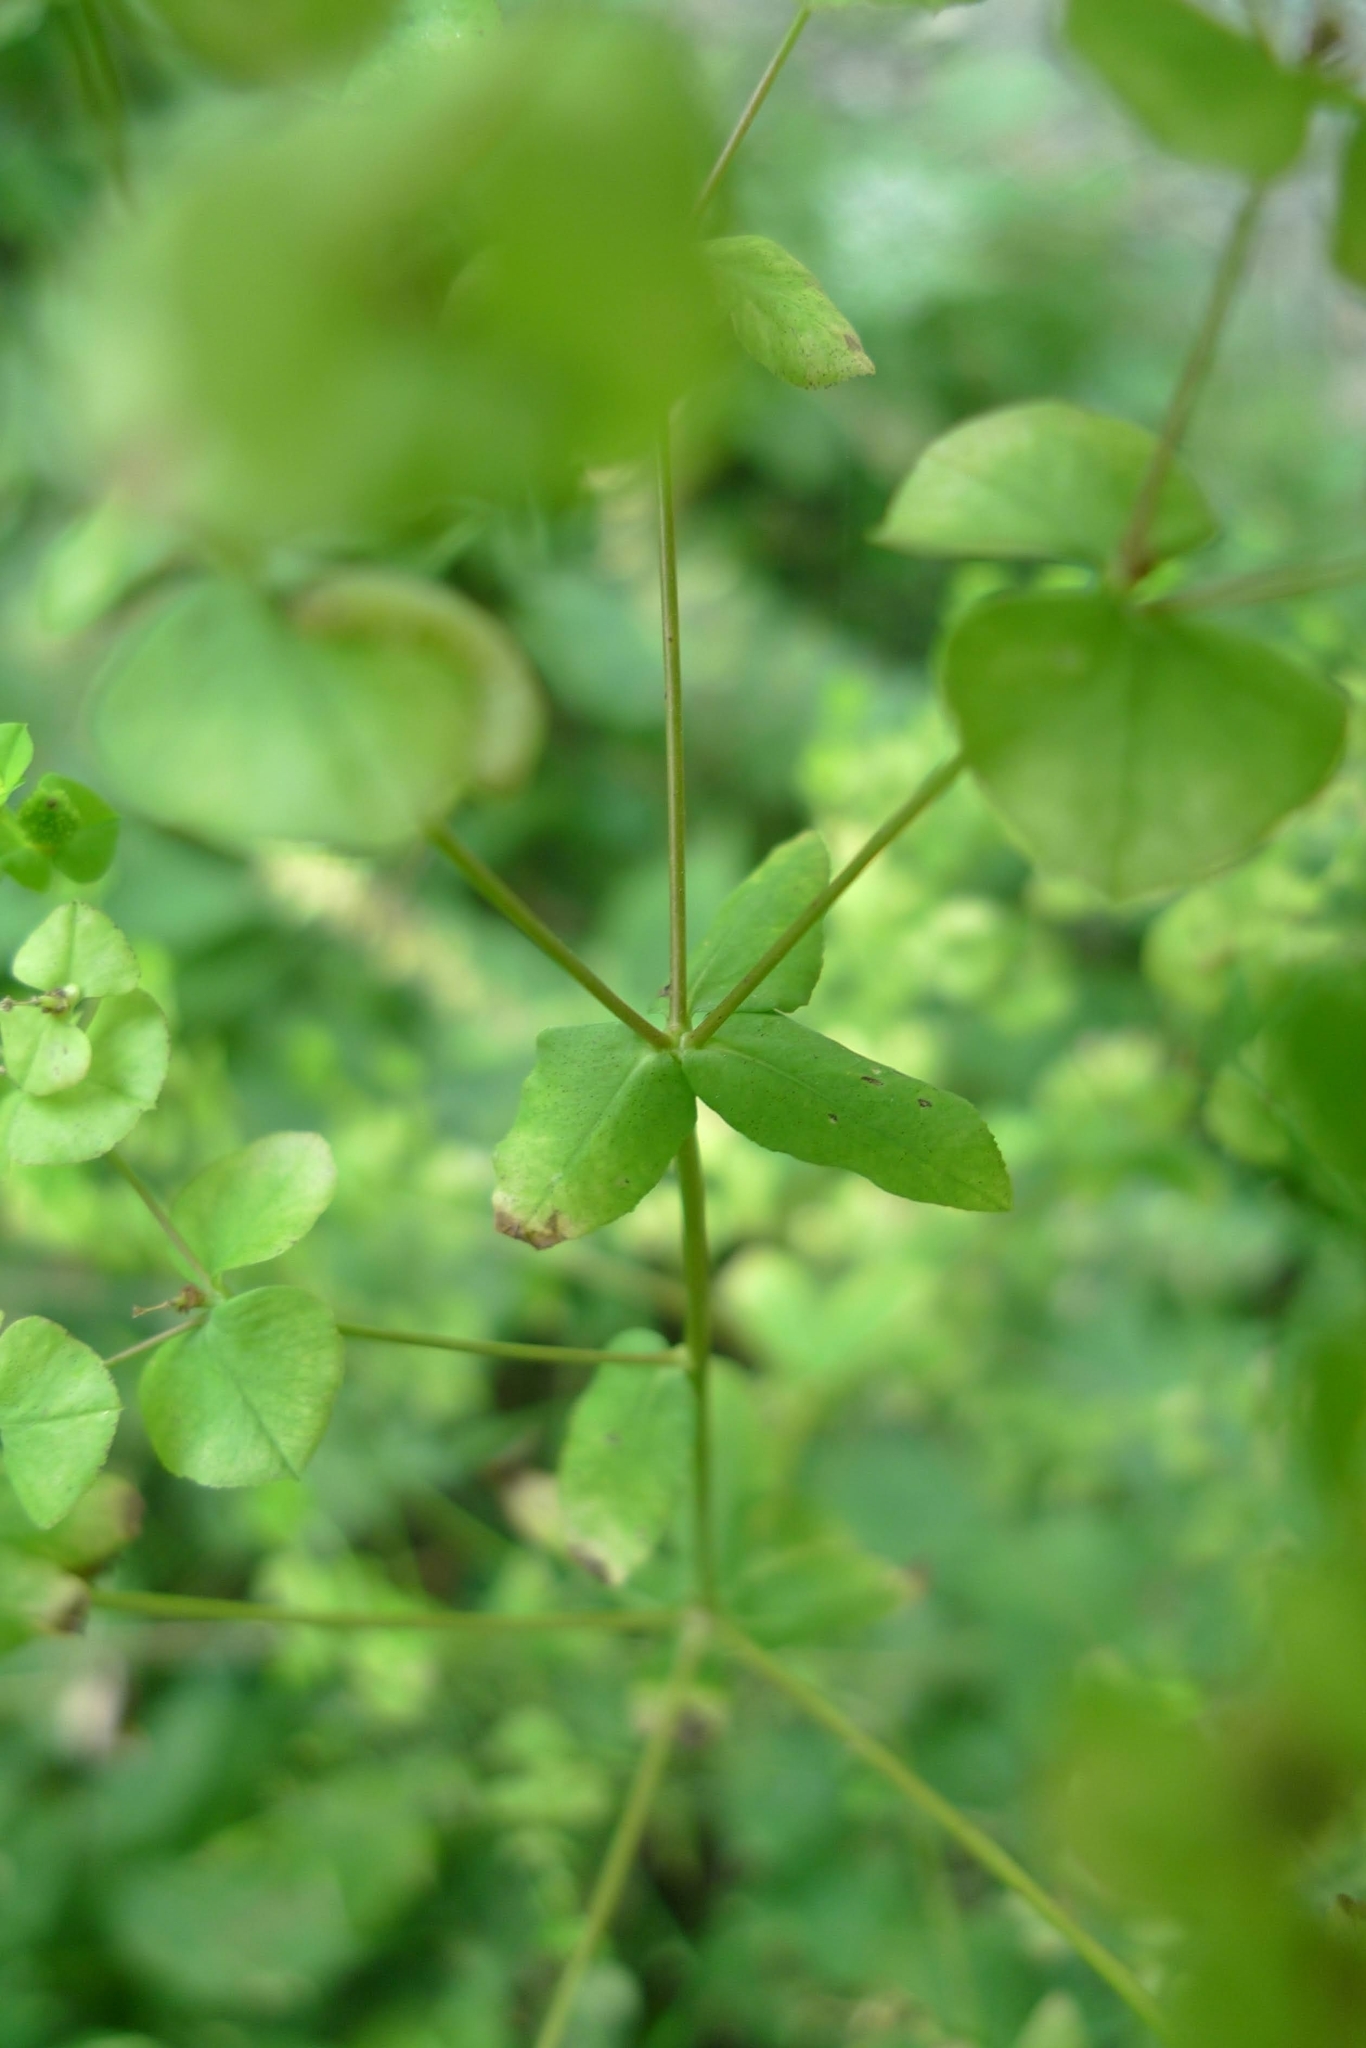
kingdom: Plantae
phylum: Tracheophyta
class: Magnoliopsida
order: Malpighiales
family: Euphorbiaceae
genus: Euphorbia
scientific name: Euphorbia stricta
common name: Upright spurge
